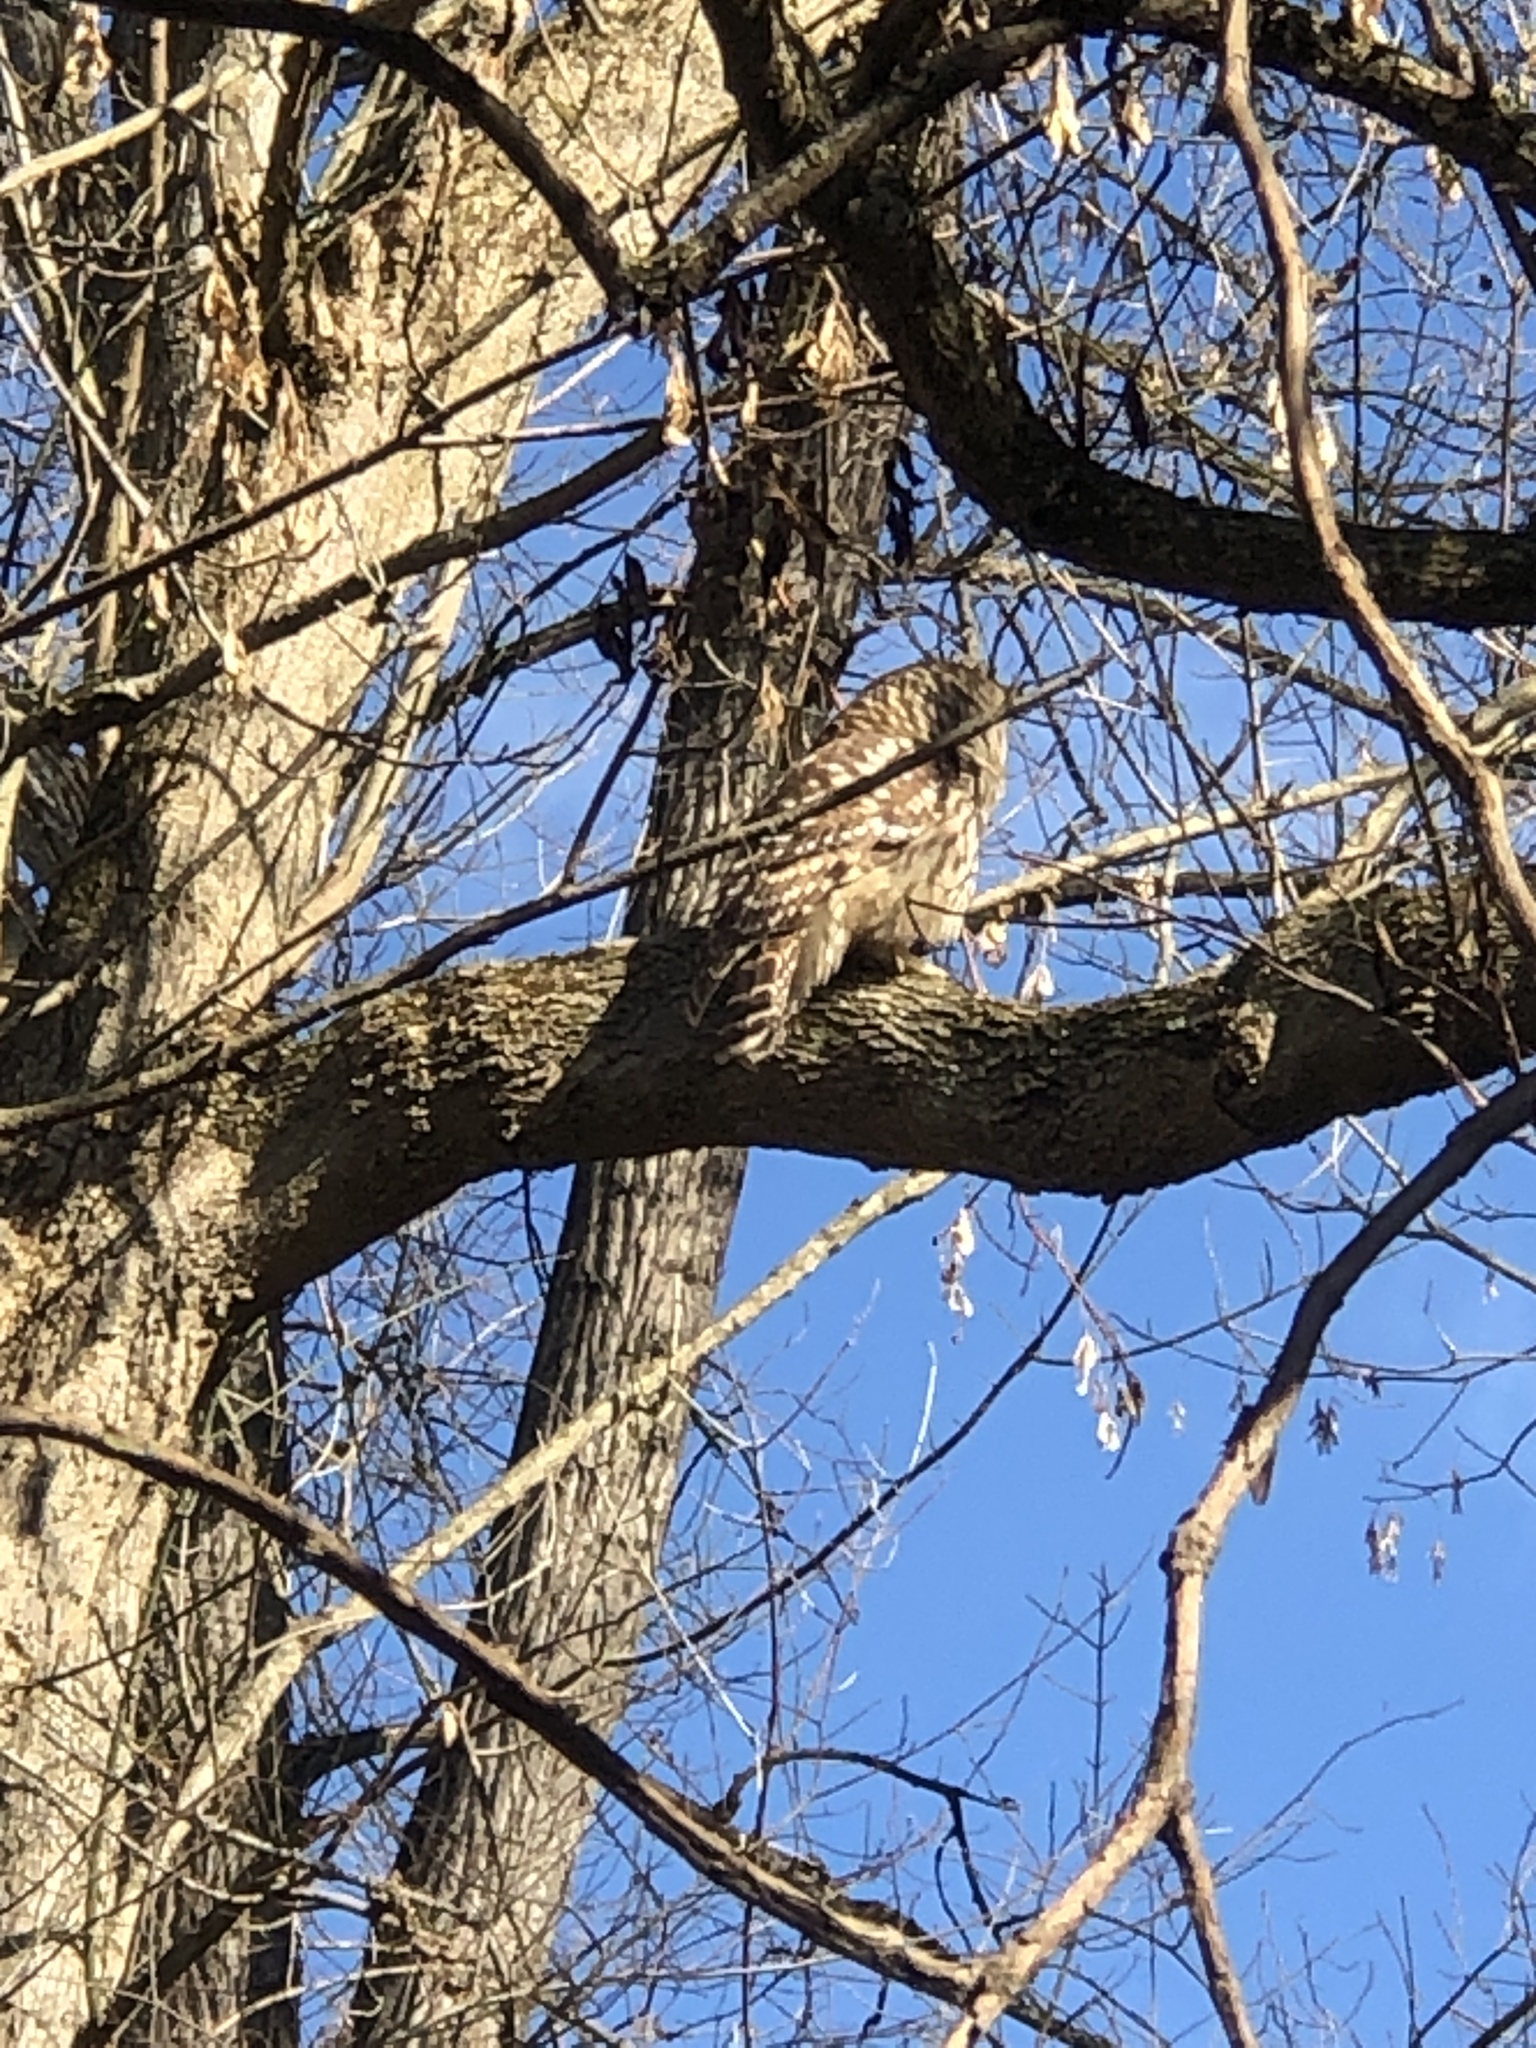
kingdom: Animalia
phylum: Chordata
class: Aves
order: Strigiformes
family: Strigidae
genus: Strix
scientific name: Strix varia
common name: Barred owl
